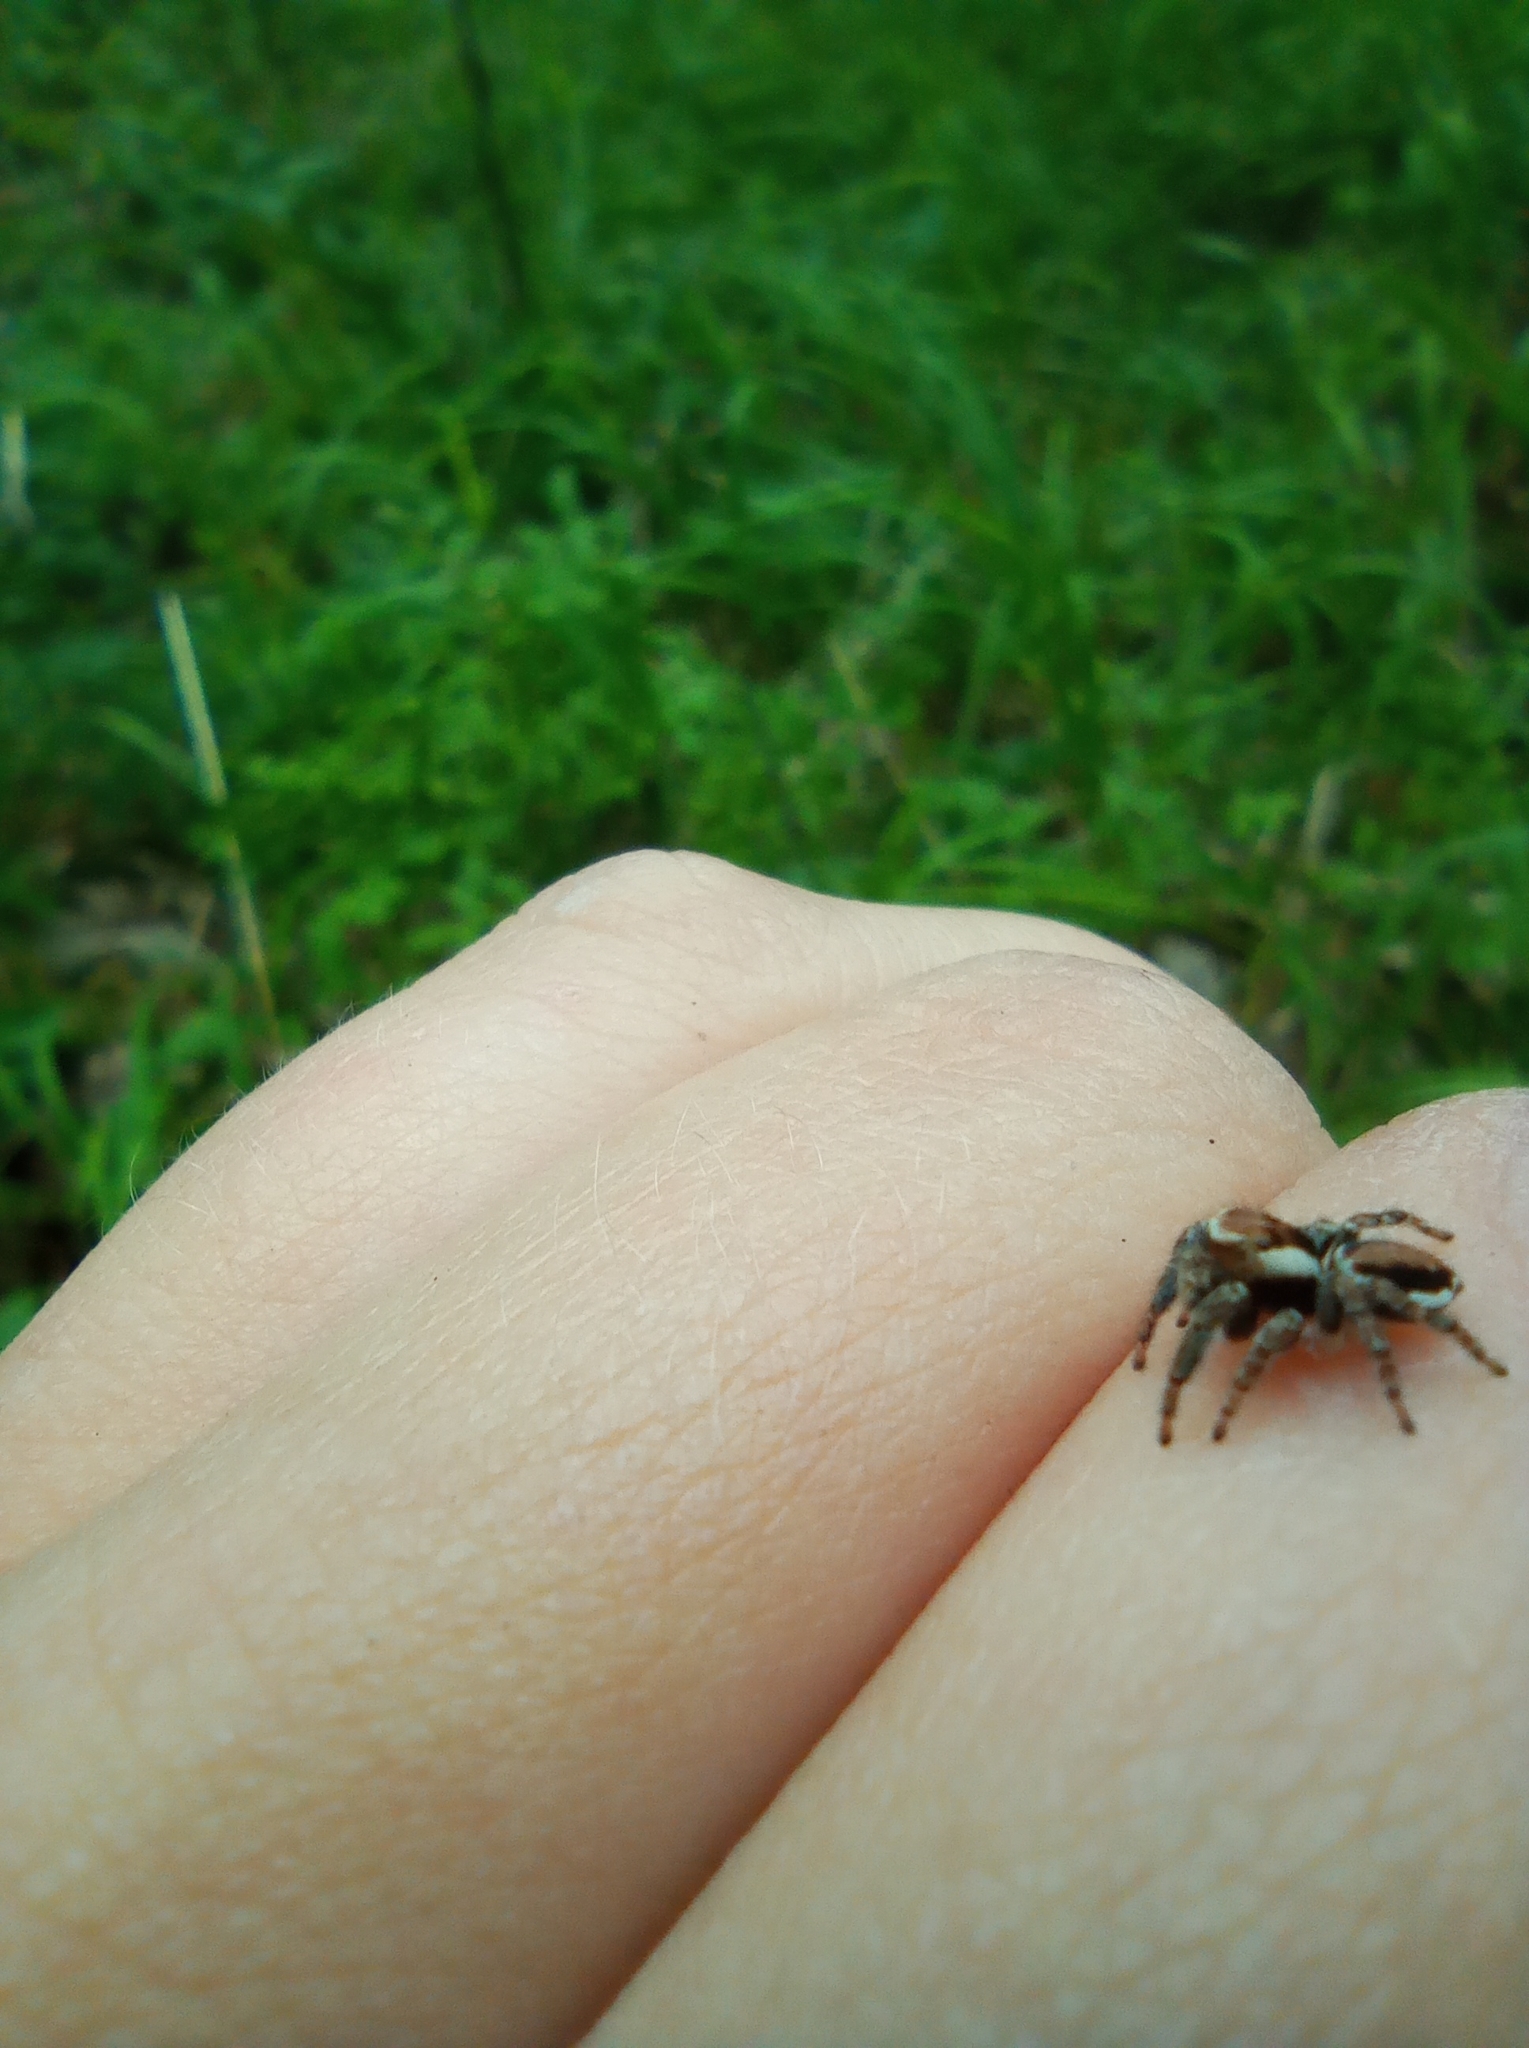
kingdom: Animalia
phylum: Arthropoda
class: Arachnida
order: Araneae
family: Salticidae
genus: Evarcha
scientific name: Evarcha falcata
